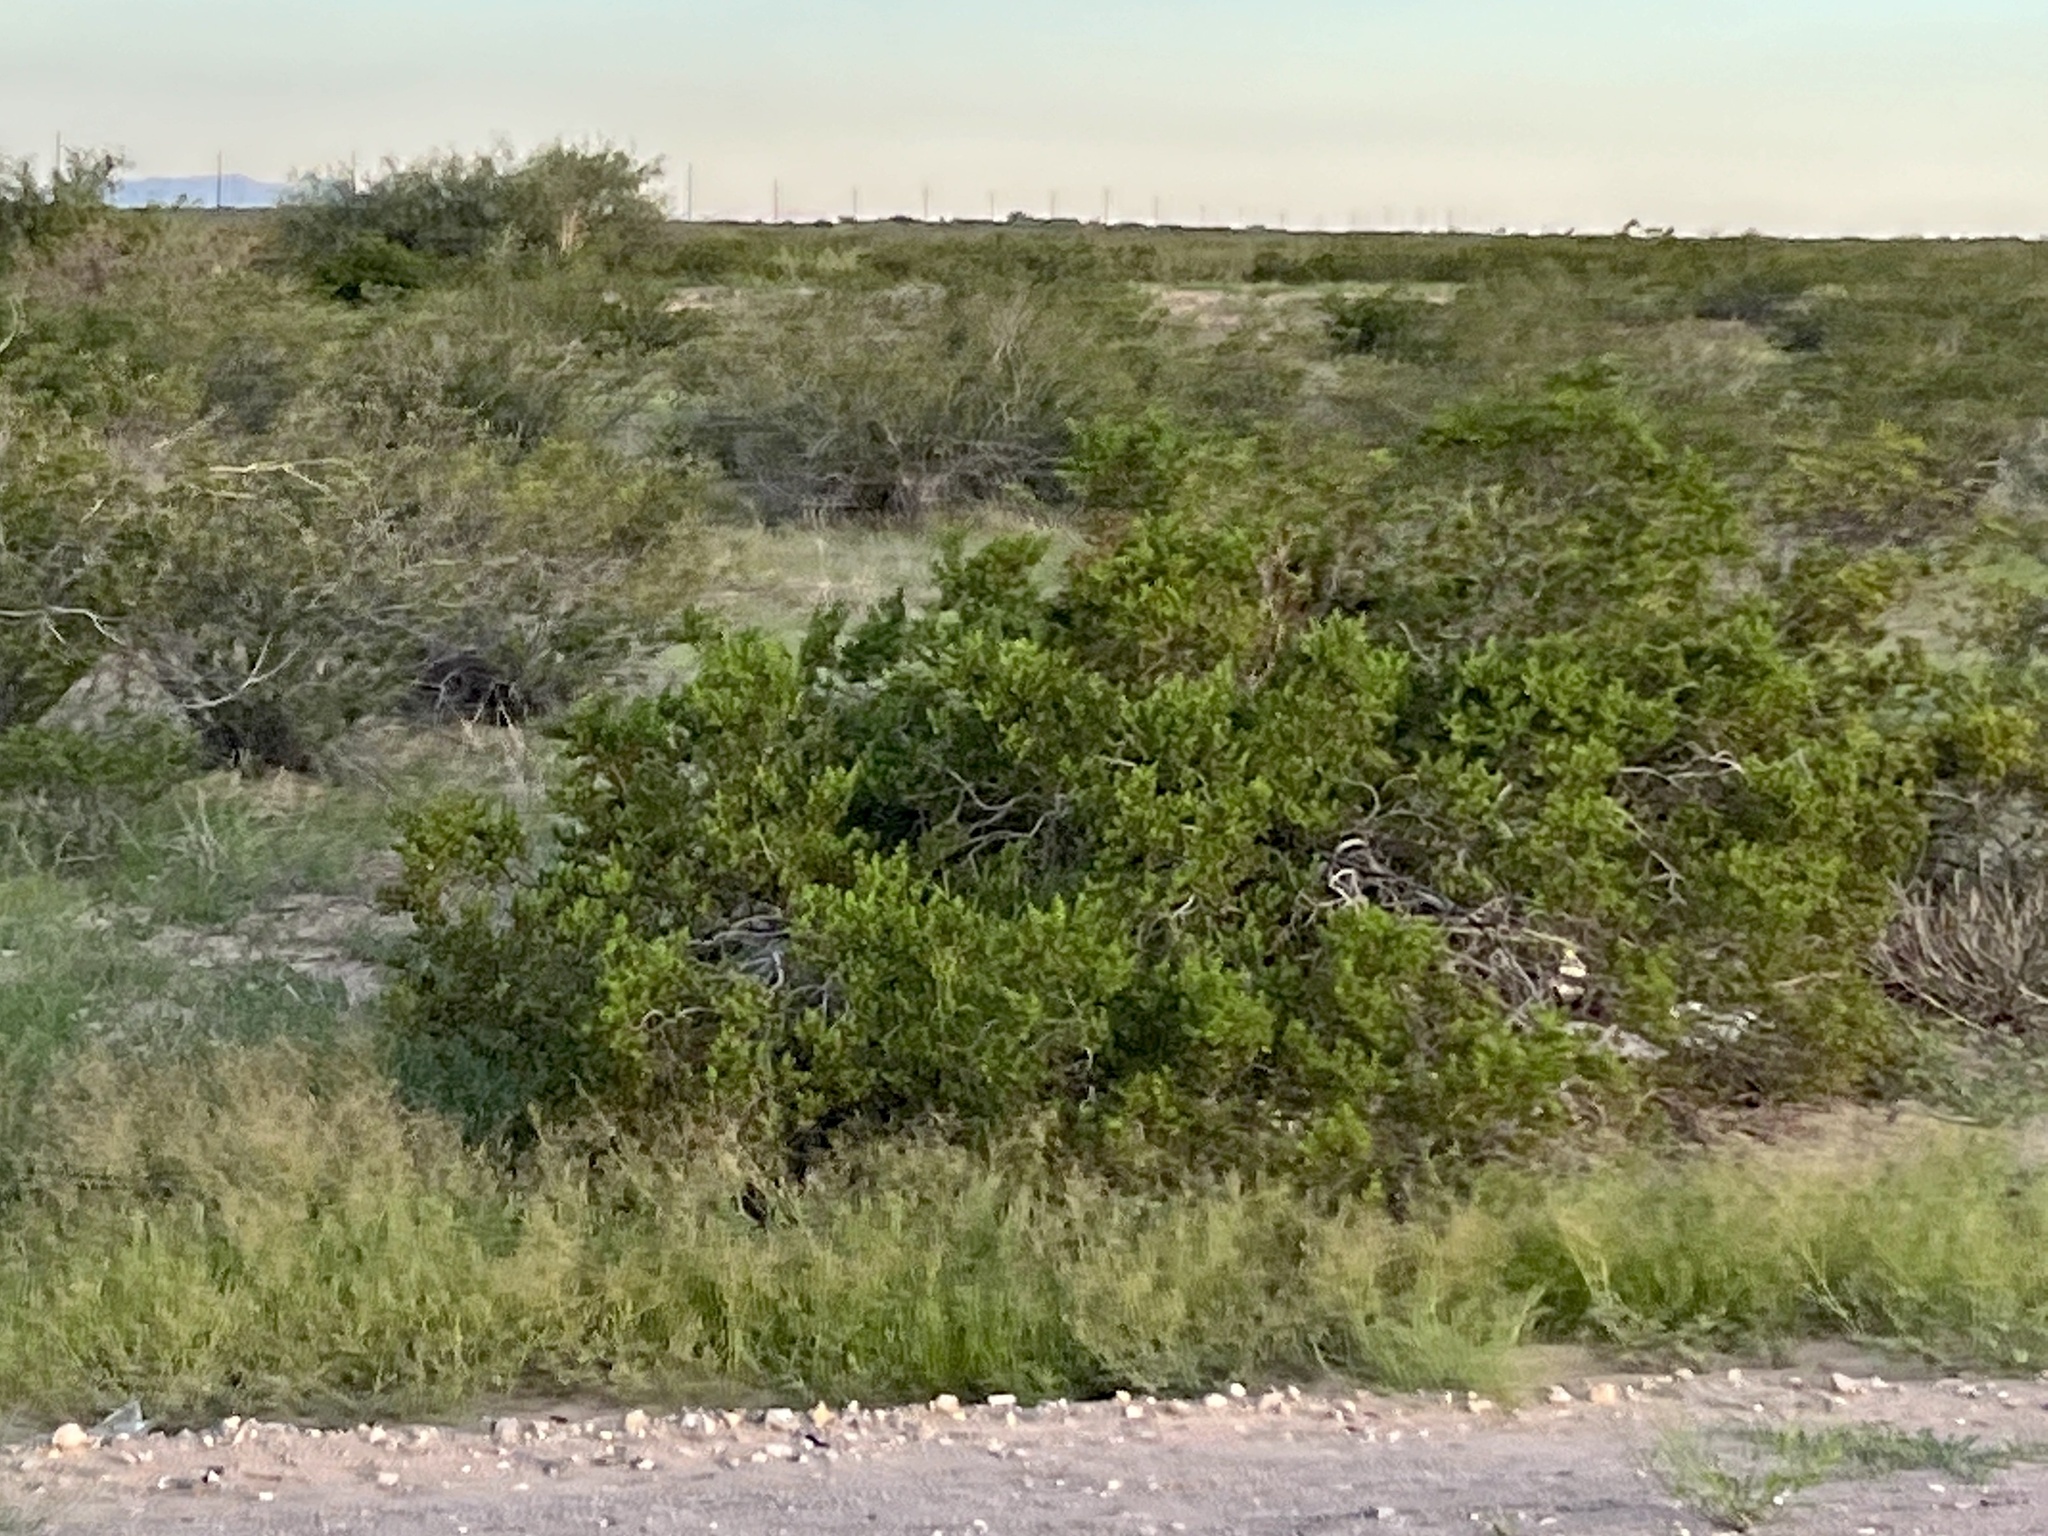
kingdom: Plantae
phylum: Tracheophyta
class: Magnoliopsida
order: Zygophyllales
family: Zygophyllaceae
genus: Larrea
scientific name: Larrea tridentata
